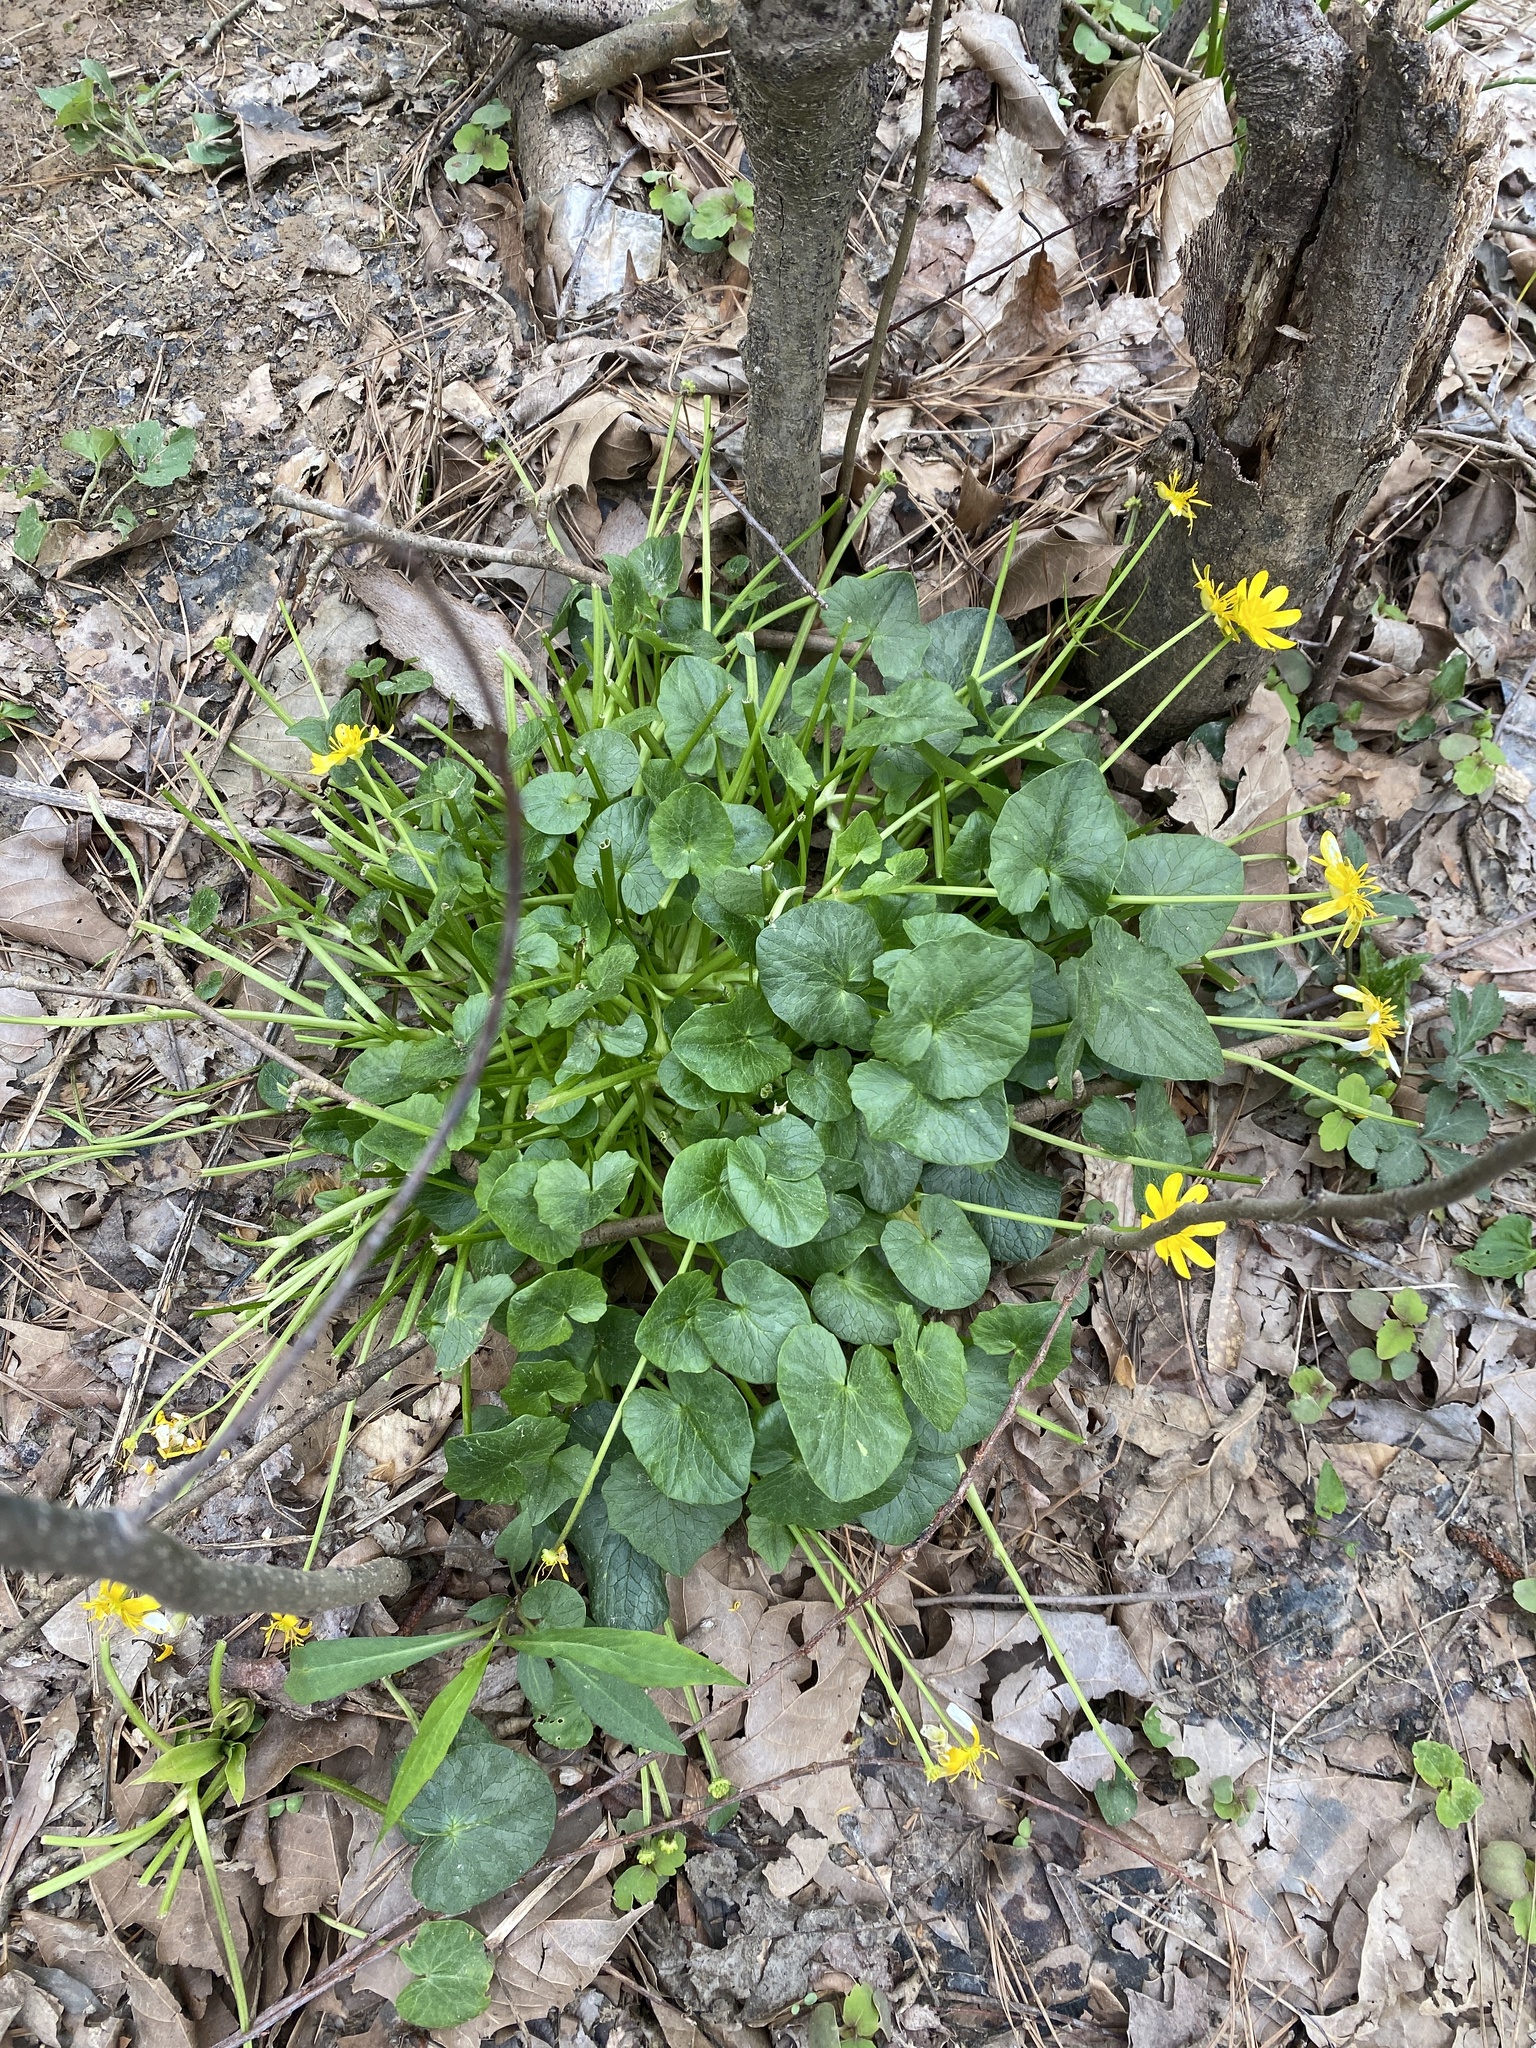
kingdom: Plantae
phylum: Tracheophyta
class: Magnoliopsida
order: Ranunculales
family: Ranunculaceae
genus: Ficaria
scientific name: Ficaria verna
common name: Lesser celandine
